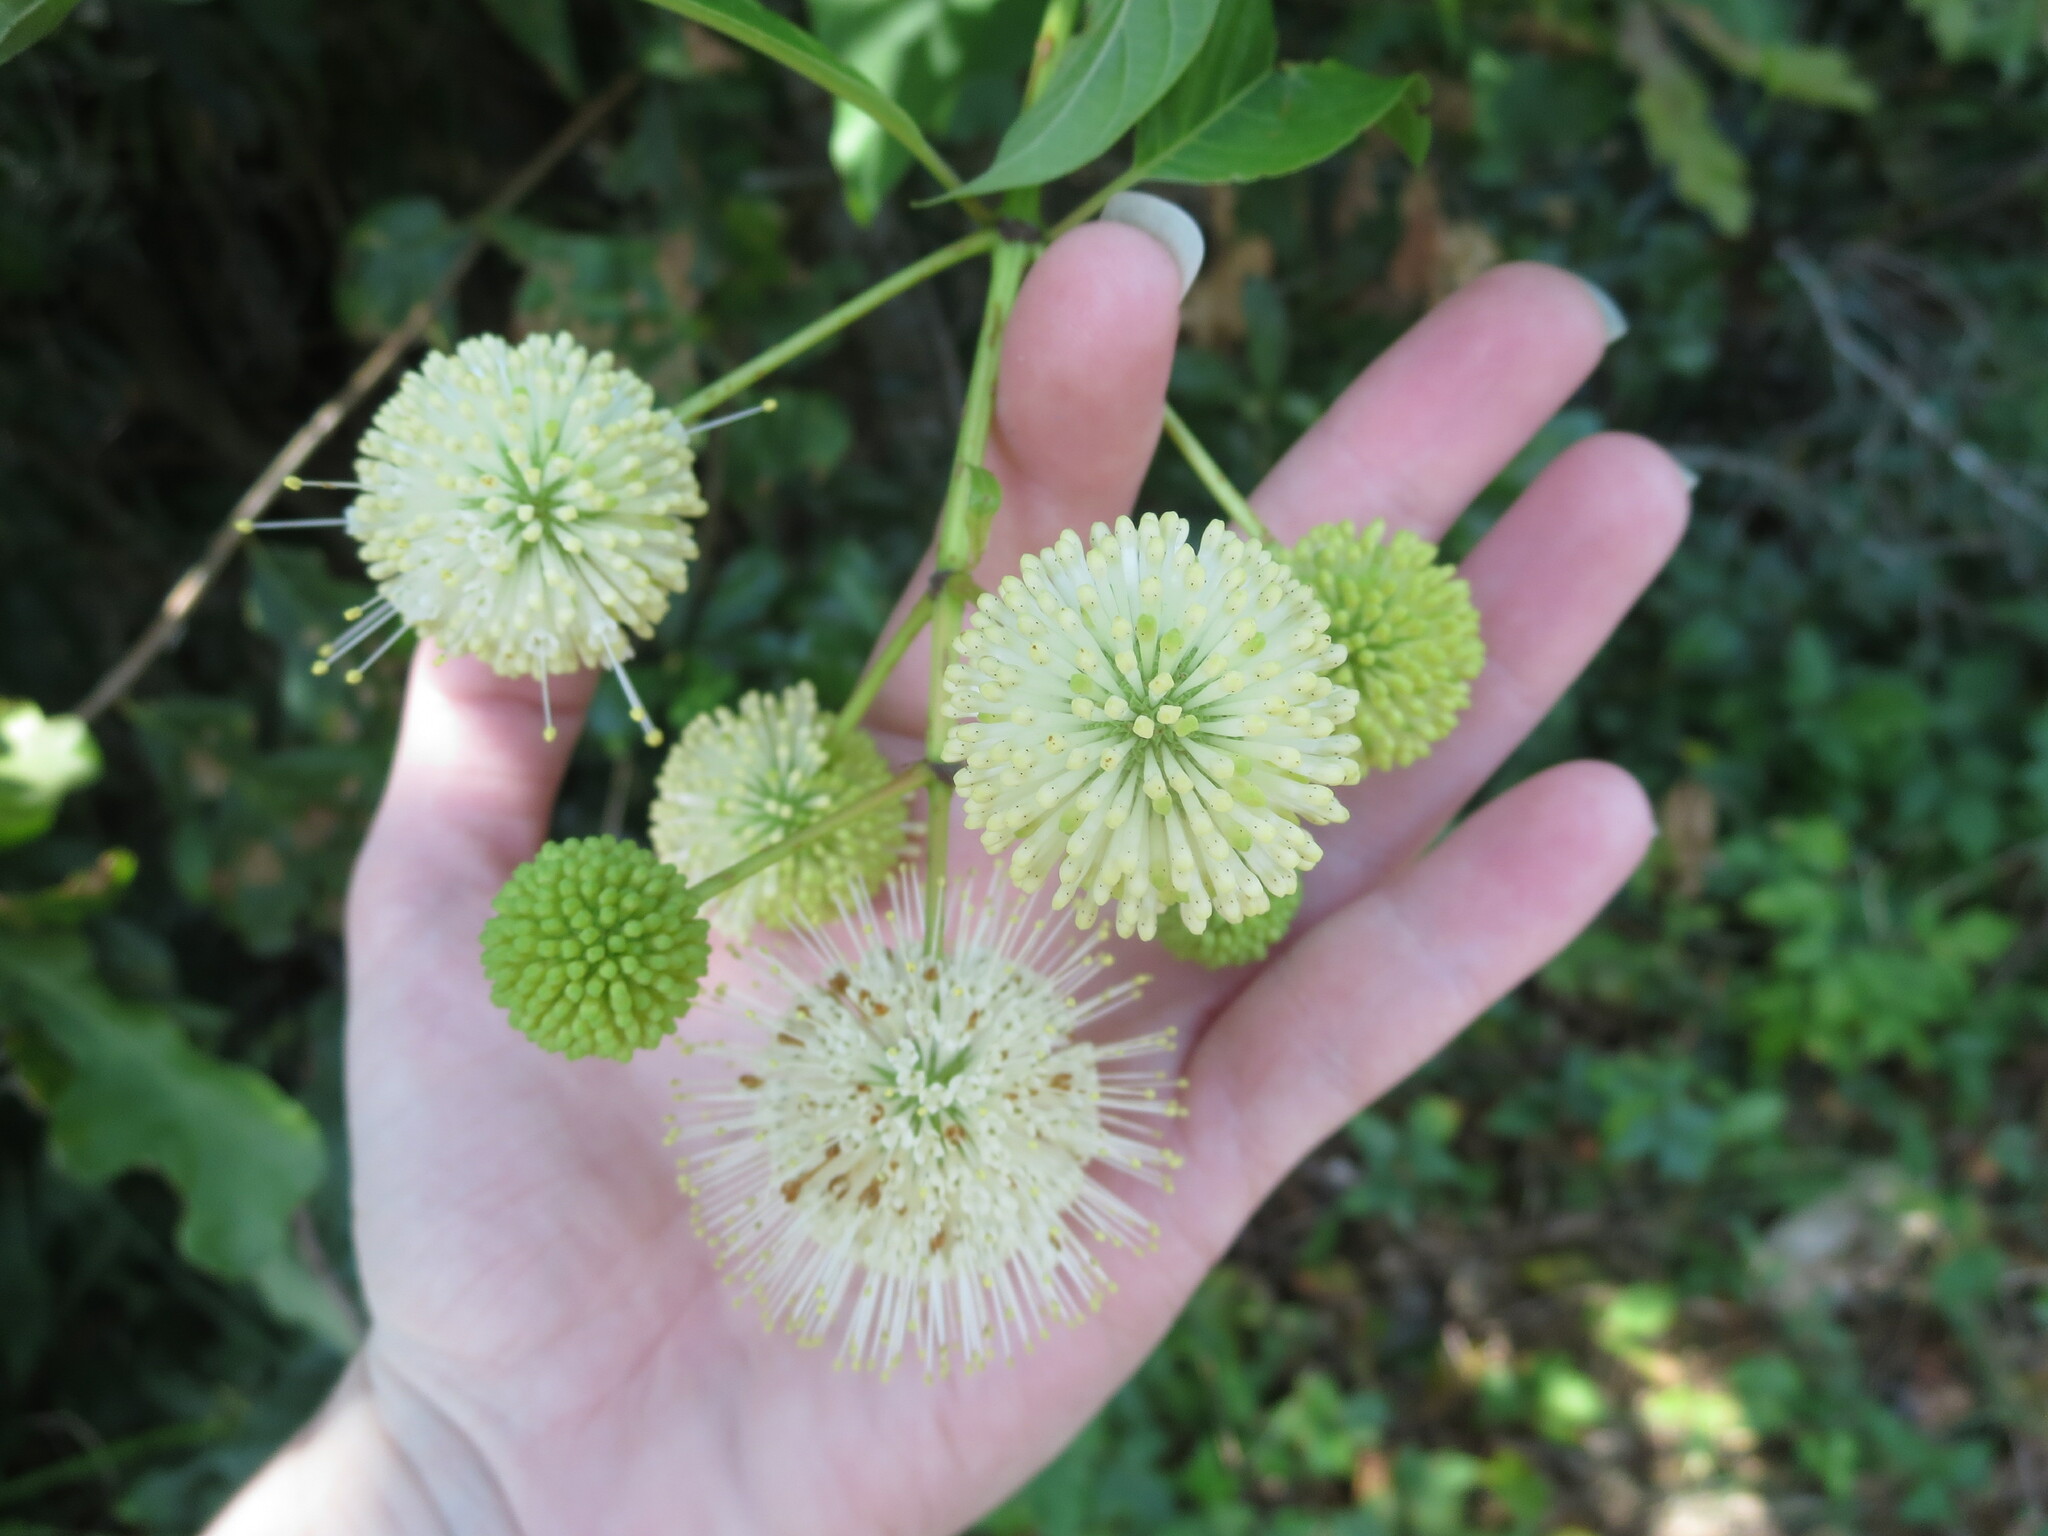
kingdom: Plantae
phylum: Tracheophyta
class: Magnoliopsida
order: Gentianales
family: Rubiaceae
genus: Cephalanthus
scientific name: Cephalanthus occidentalis
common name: Button-willow
